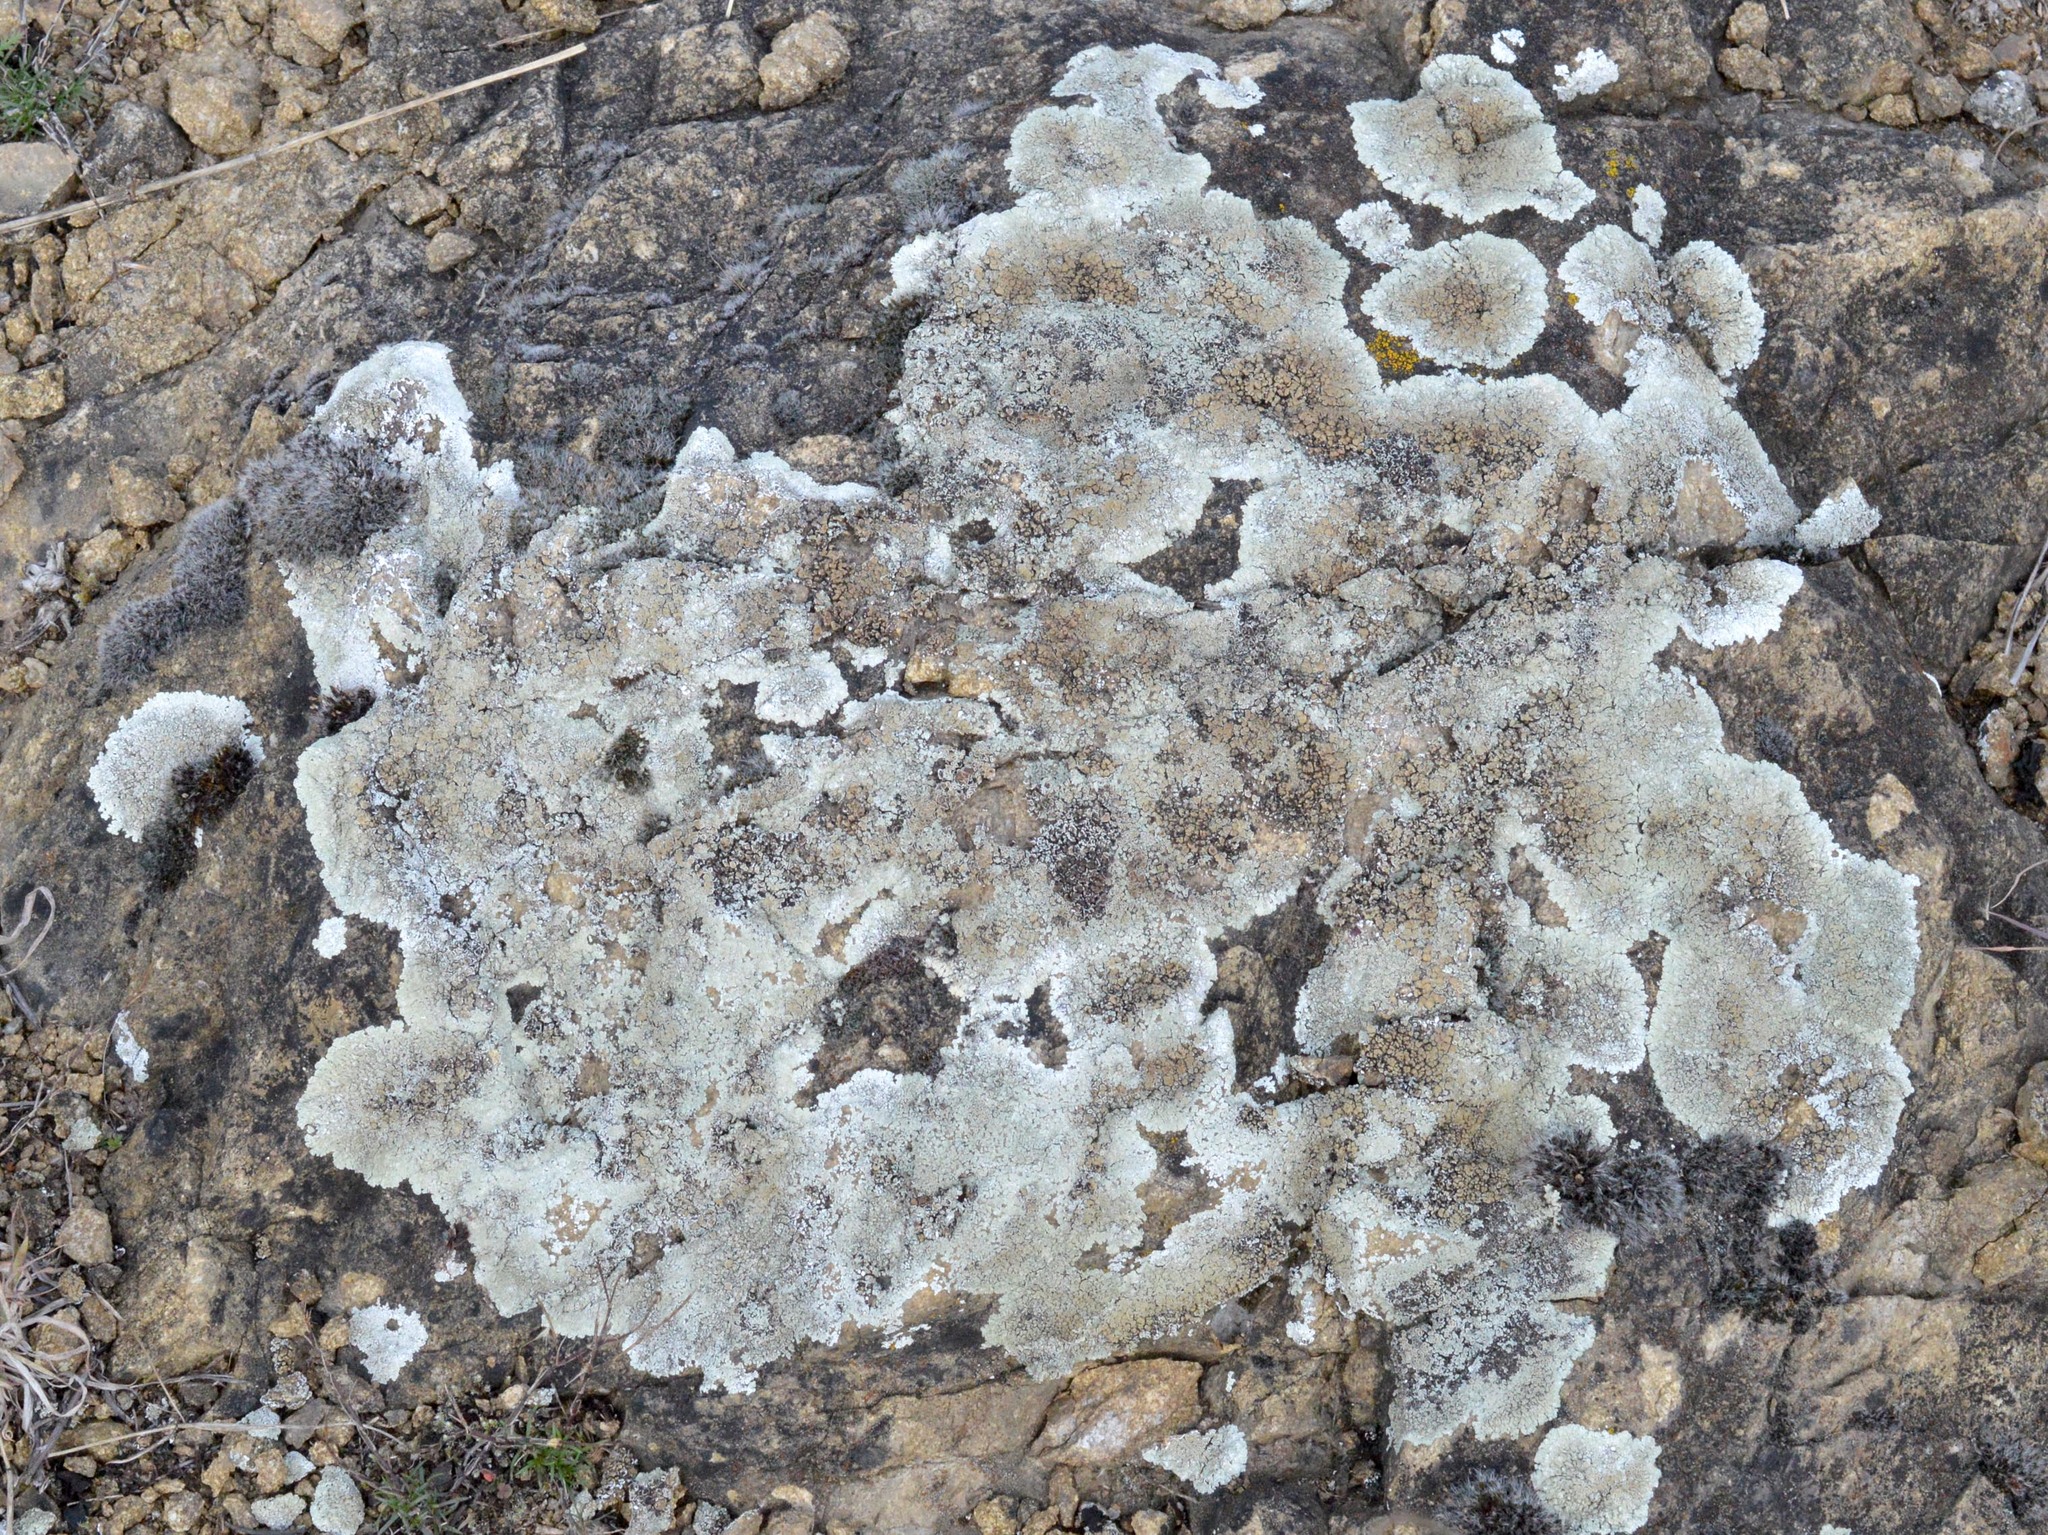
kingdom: Fungi
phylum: Ascomycota
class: Lecanoromycetes
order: Lecanorales
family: Lecanoraceae
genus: Protoparmeliopsis
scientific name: Protoparmeliopsis muralis
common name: Stonewall rim lichen
